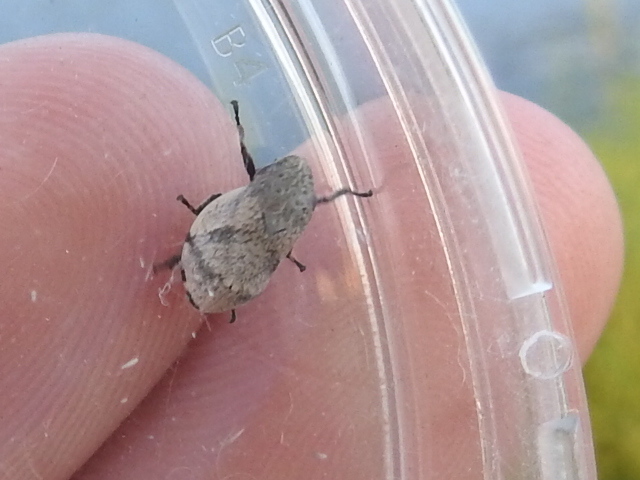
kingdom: Animalia
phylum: Arthropoda
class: Insecta
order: Hemiptera
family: Aphrophoridae
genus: Lepyronia
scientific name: Lepyronia gibbosa
